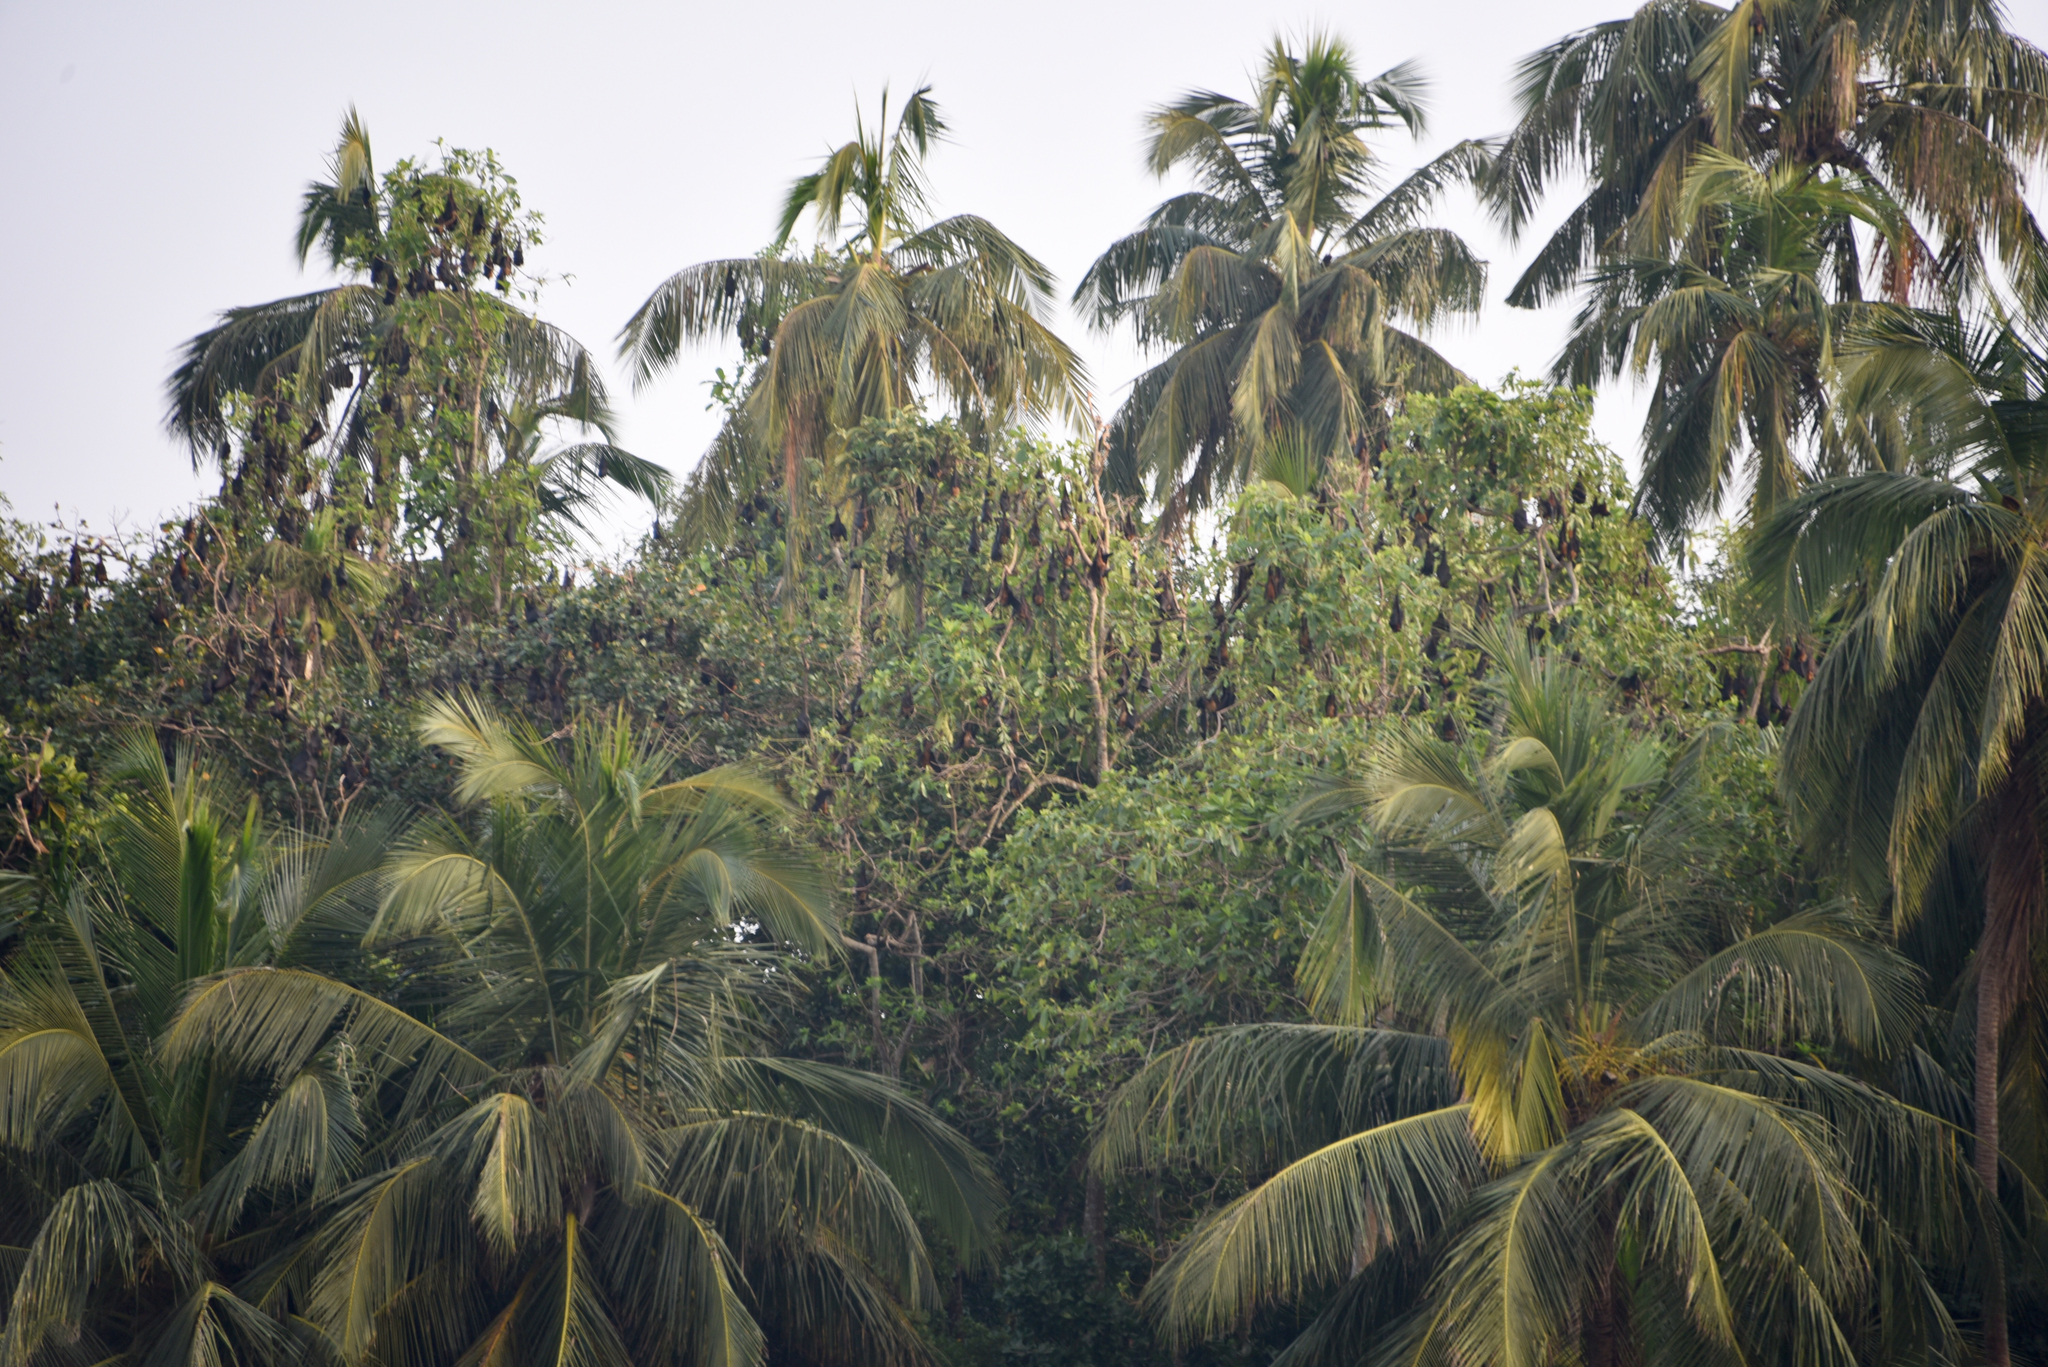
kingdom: Animalia
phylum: Chordata
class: Mammalia
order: Chiroptera
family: Pteropodidae
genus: Pteropus
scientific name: Pteropus vampyrus
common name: Large flying fox
